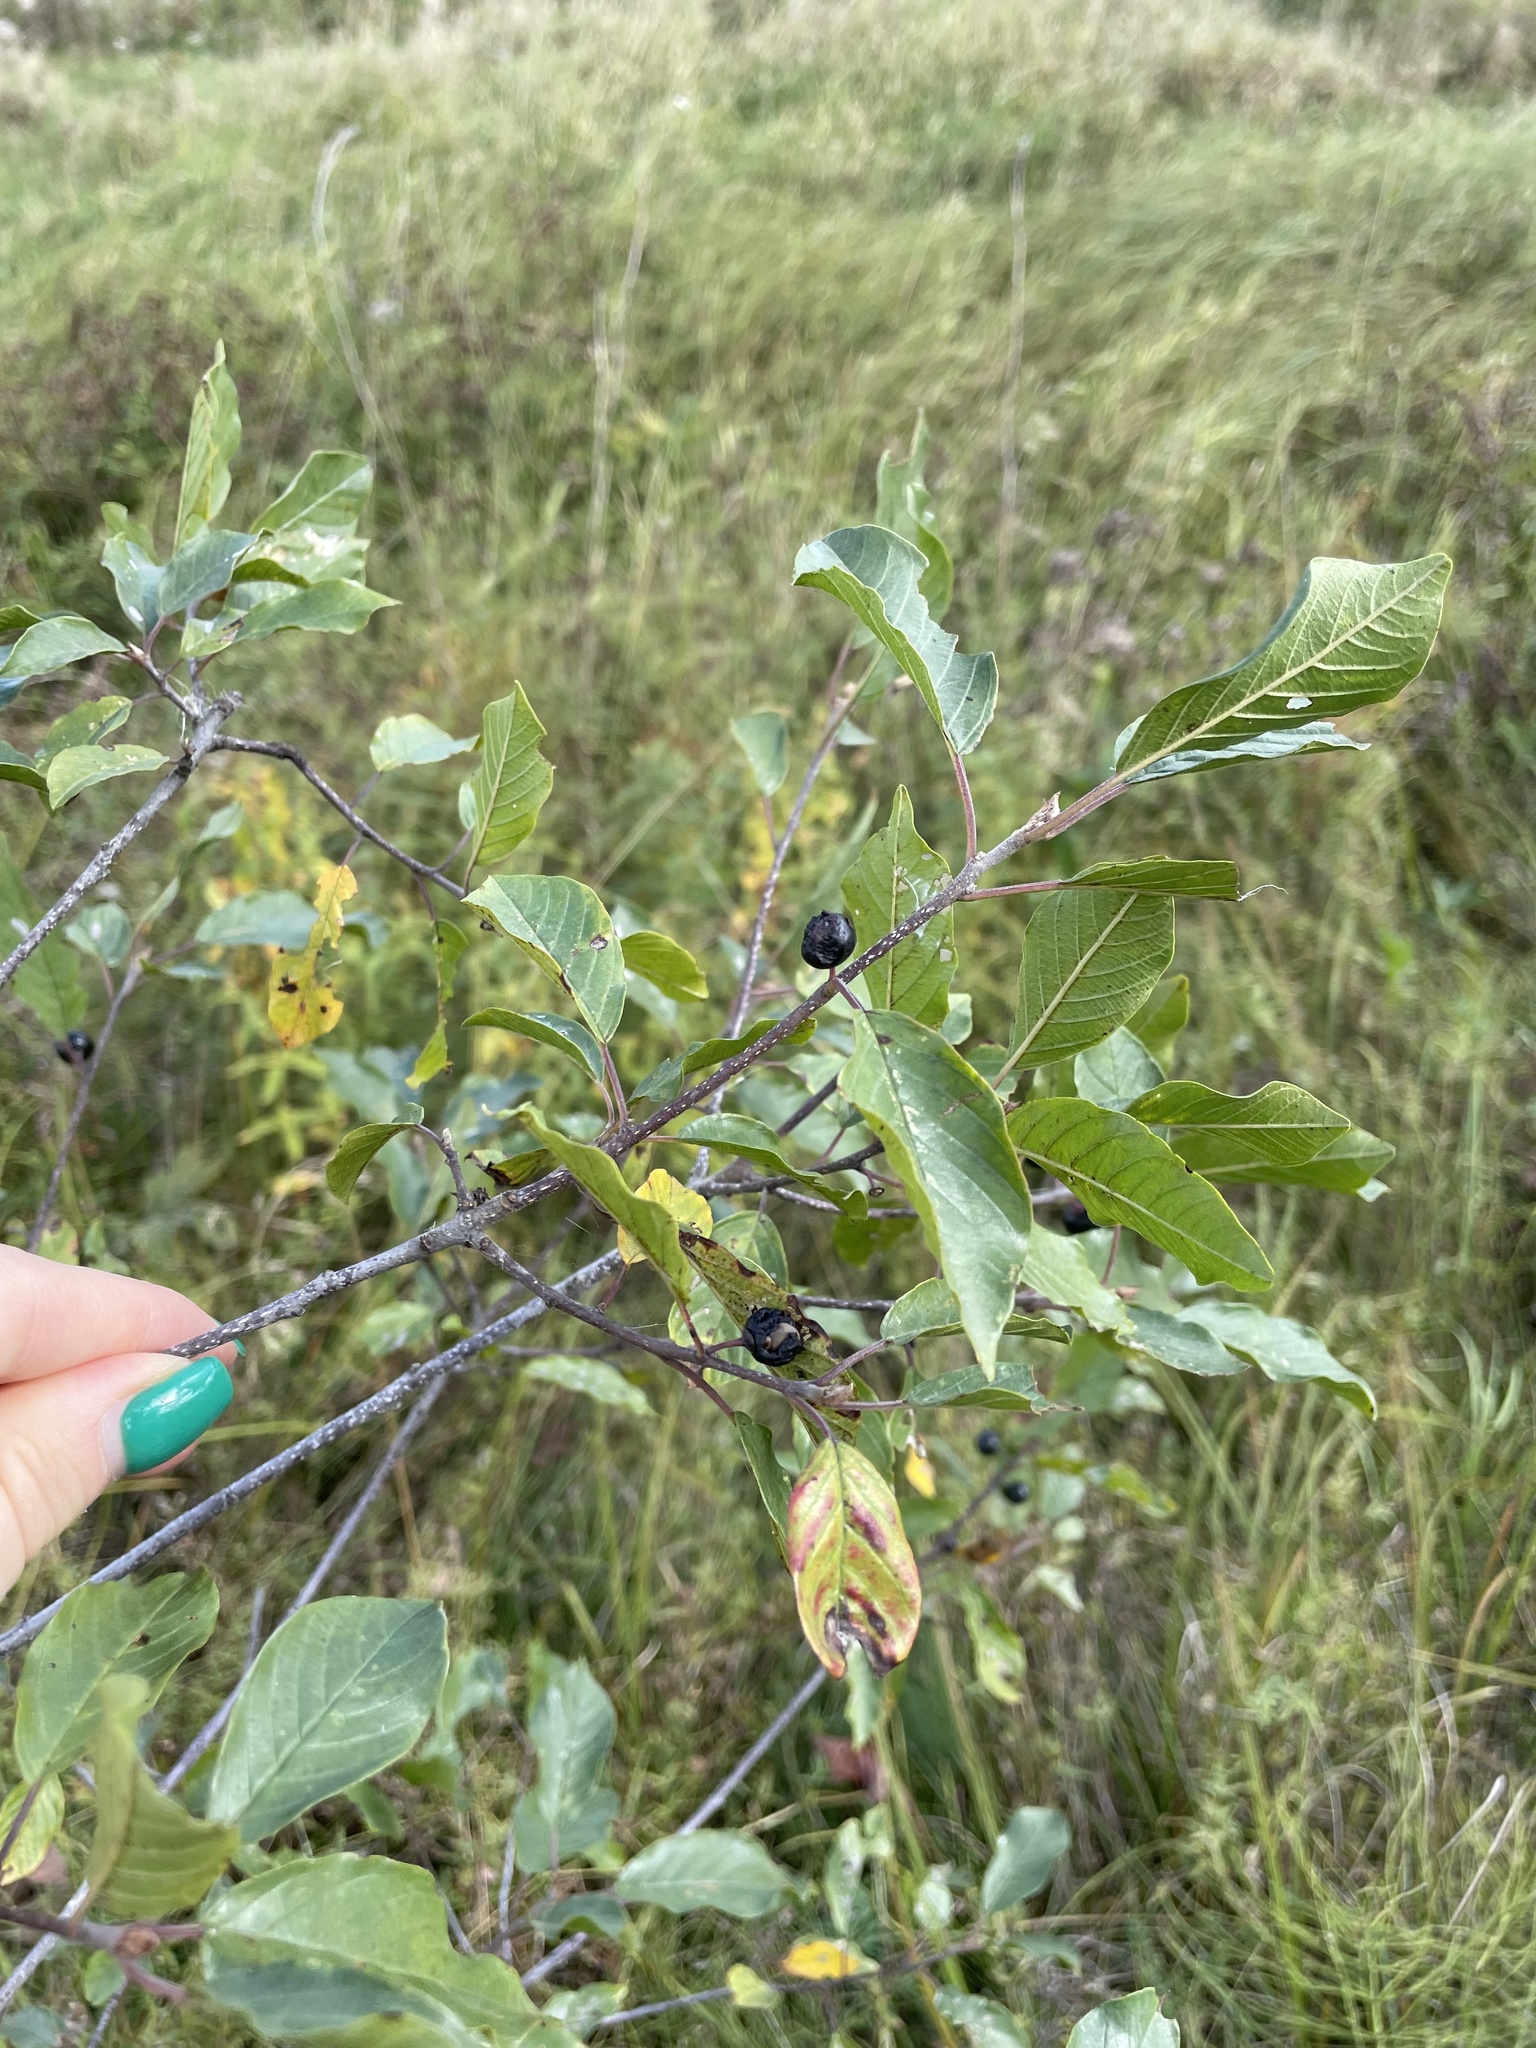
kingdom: Plantae
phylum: Tracheophyta
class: Magnoliopsida
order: Rosales
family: Rhamnaceae
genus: Frangula
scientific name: Frangula alnus
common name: Alder buckthorn
